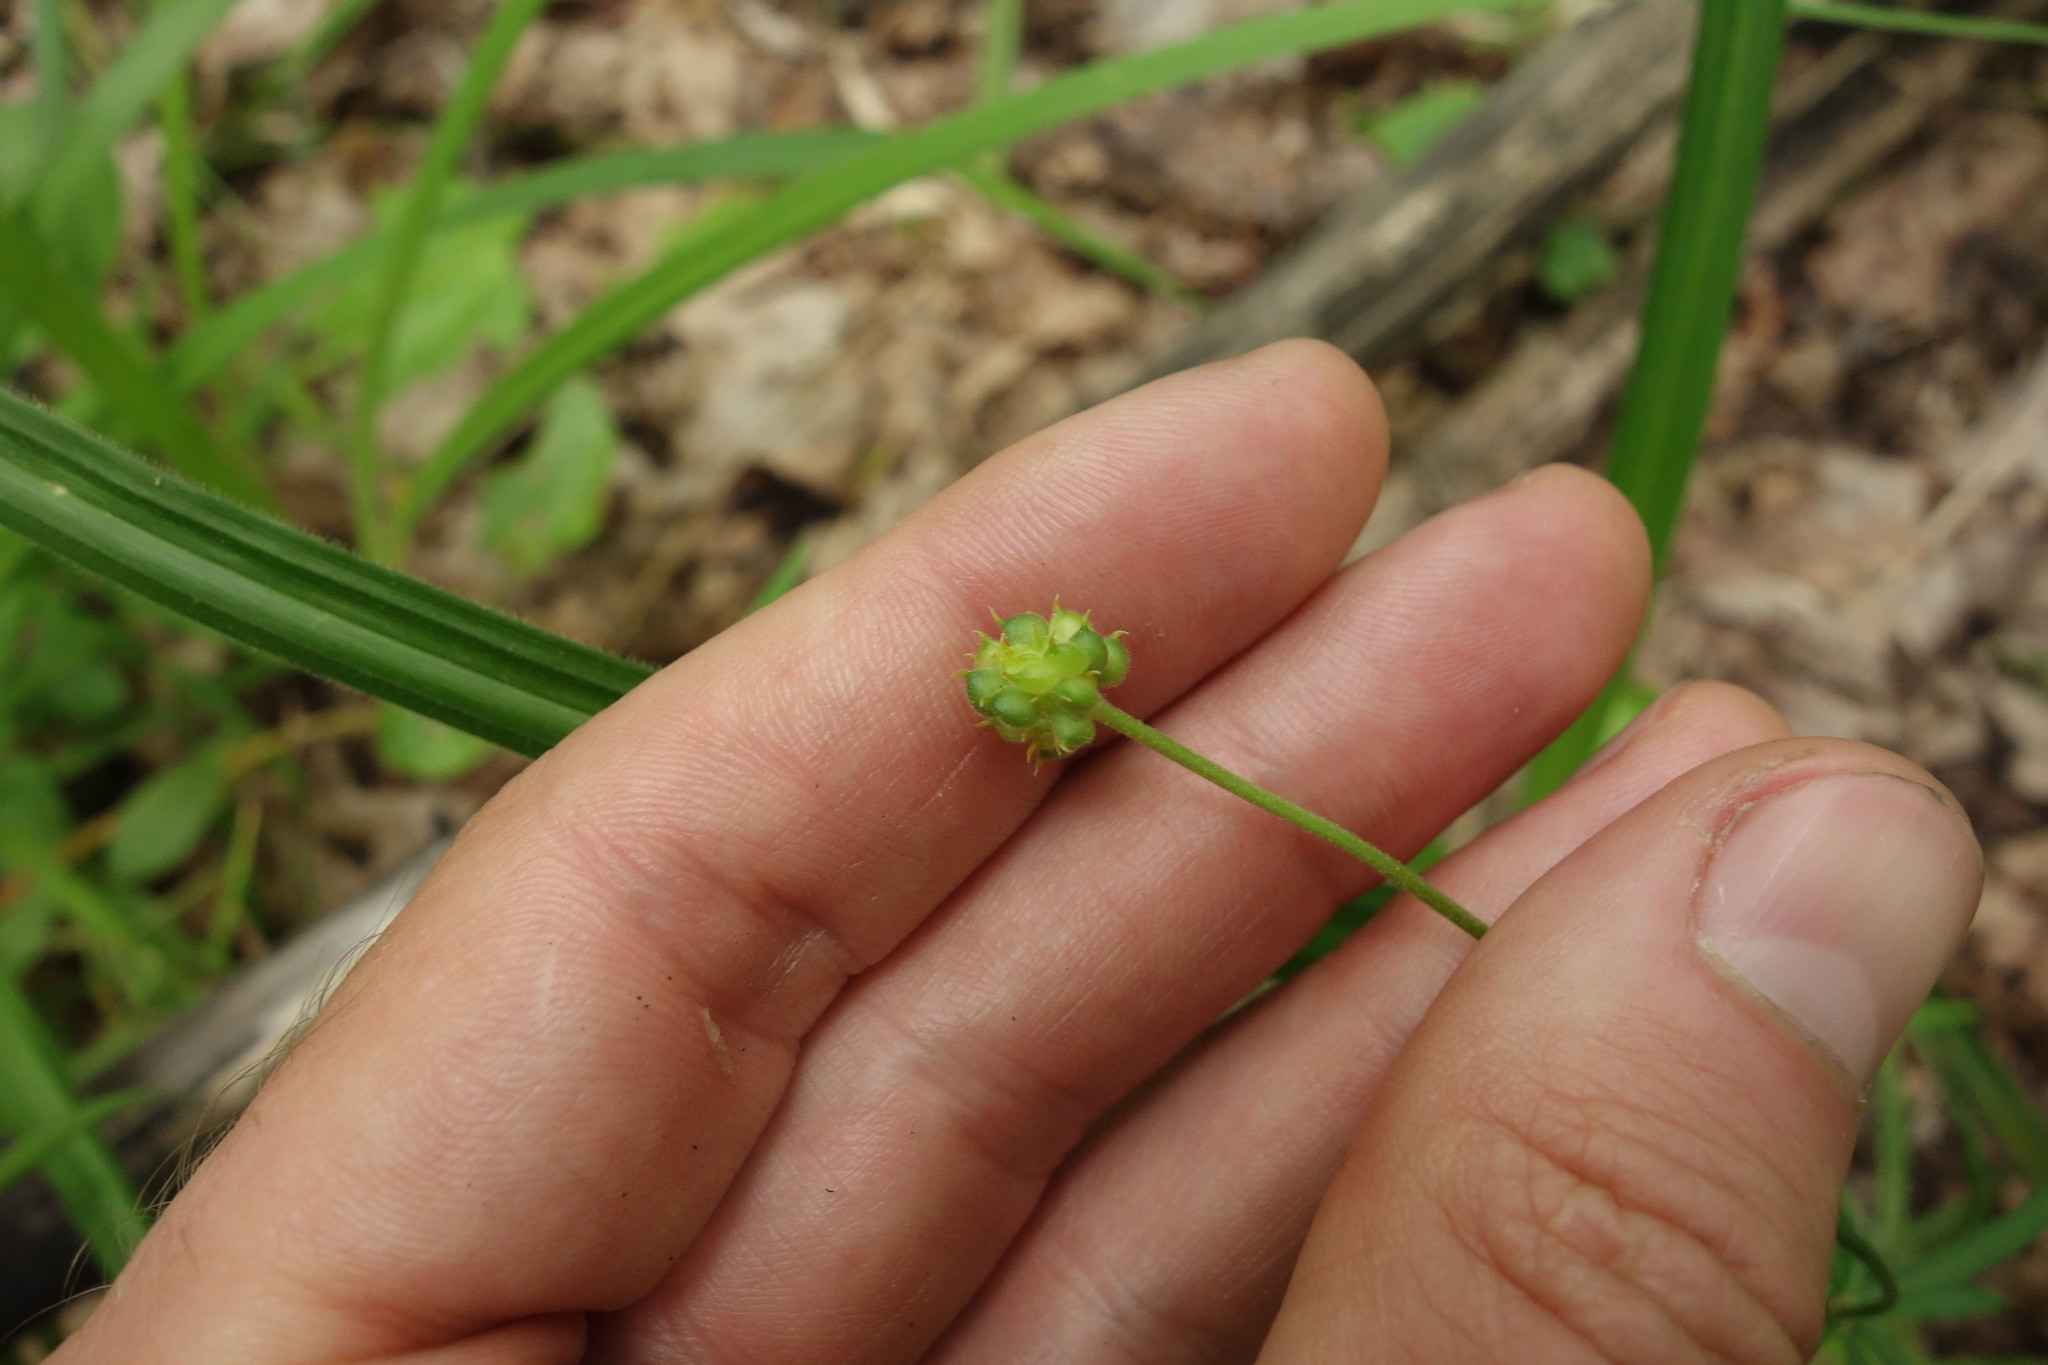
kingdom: Plantae
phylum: Tracheophyta
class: Magnoliopsida
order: Ranunculales
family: Ranunculaceae
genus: Ranunculus
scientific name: Ranunculus auricomus
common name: Goldilocks buttercup
